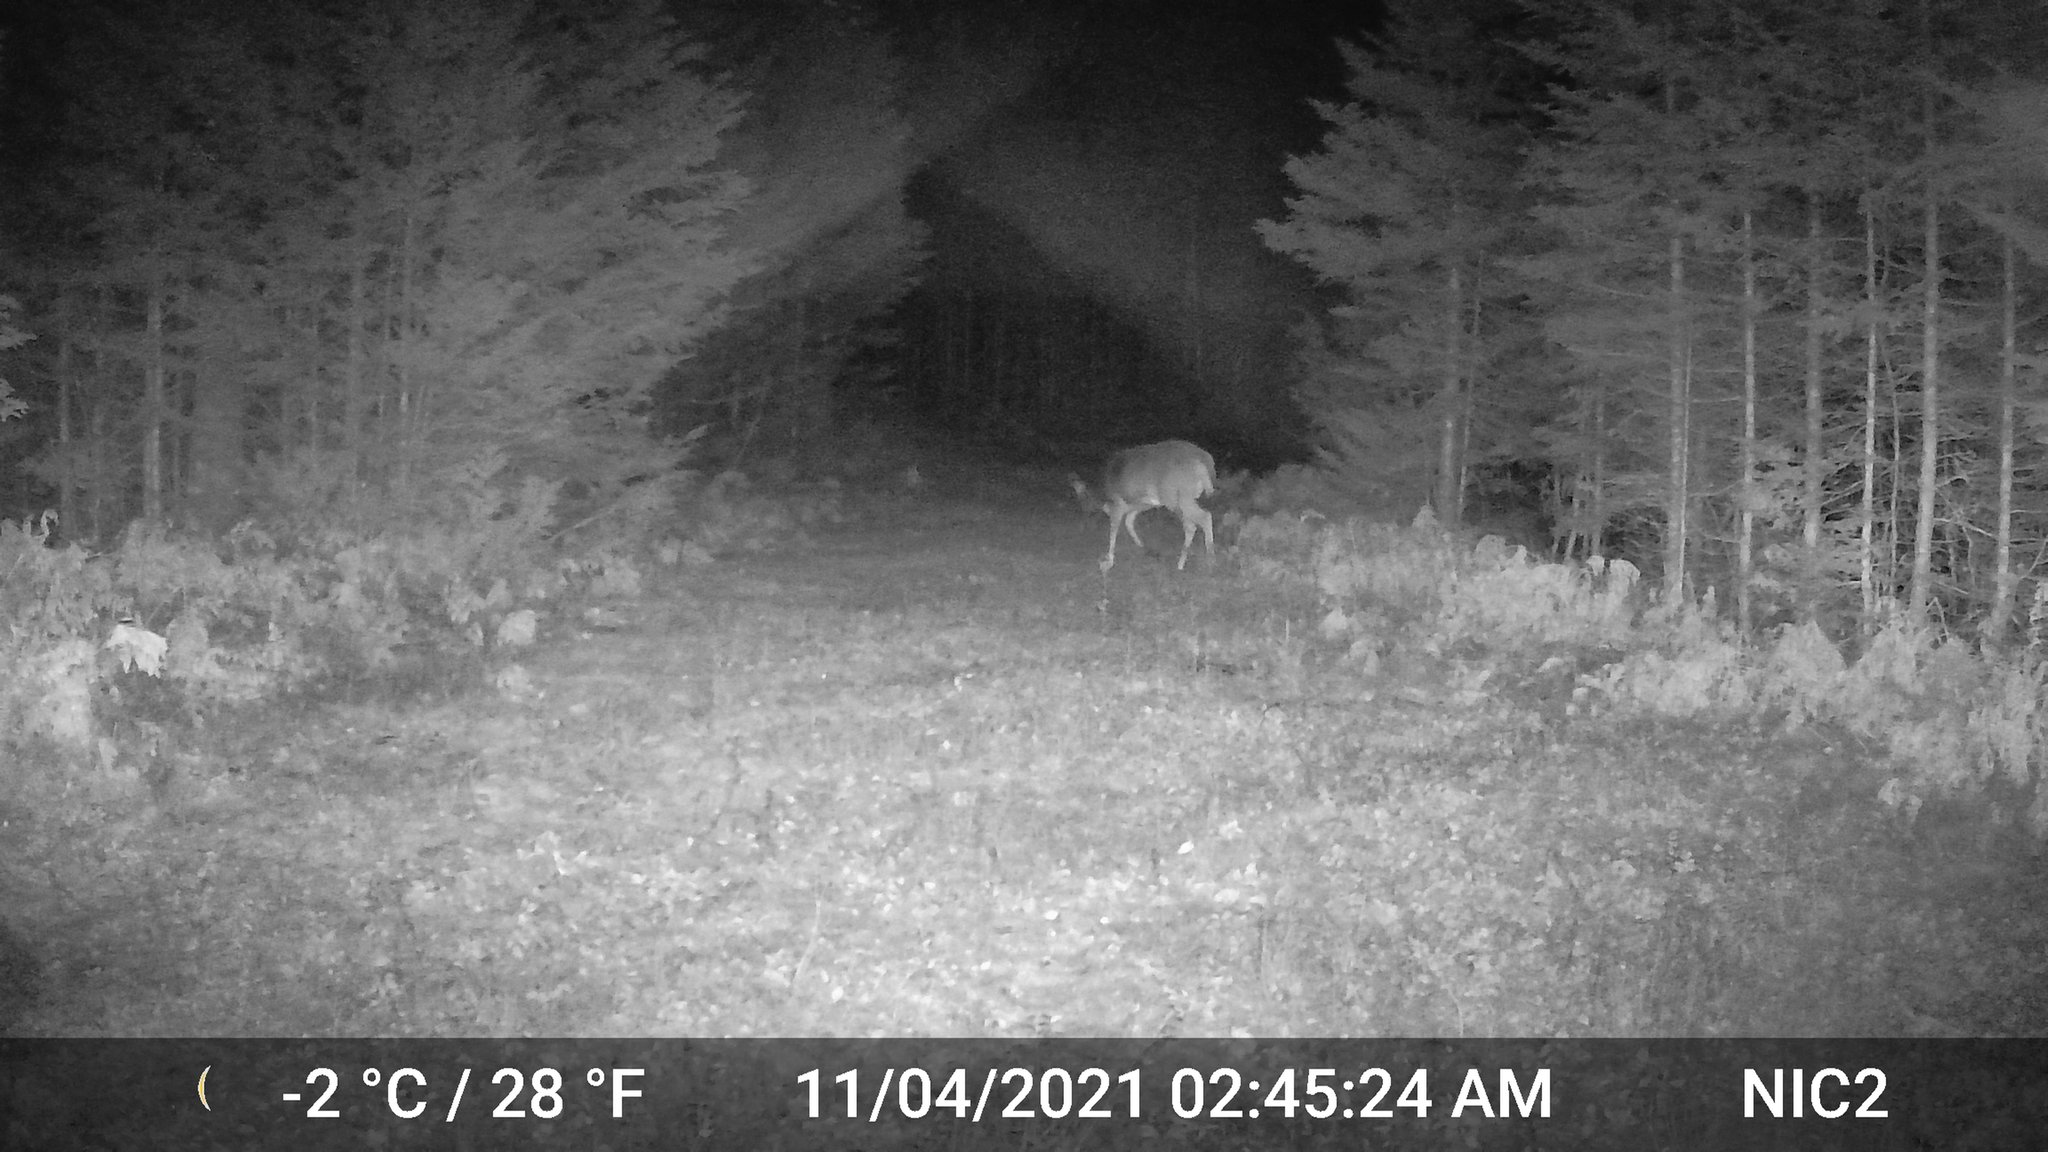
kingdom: Animalia
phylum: Chordata
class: Mammalia
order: Artiodactyla
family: Cervidae
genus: Odocoileus
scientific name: Odocoileus virginianus
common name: White-tailed deer
